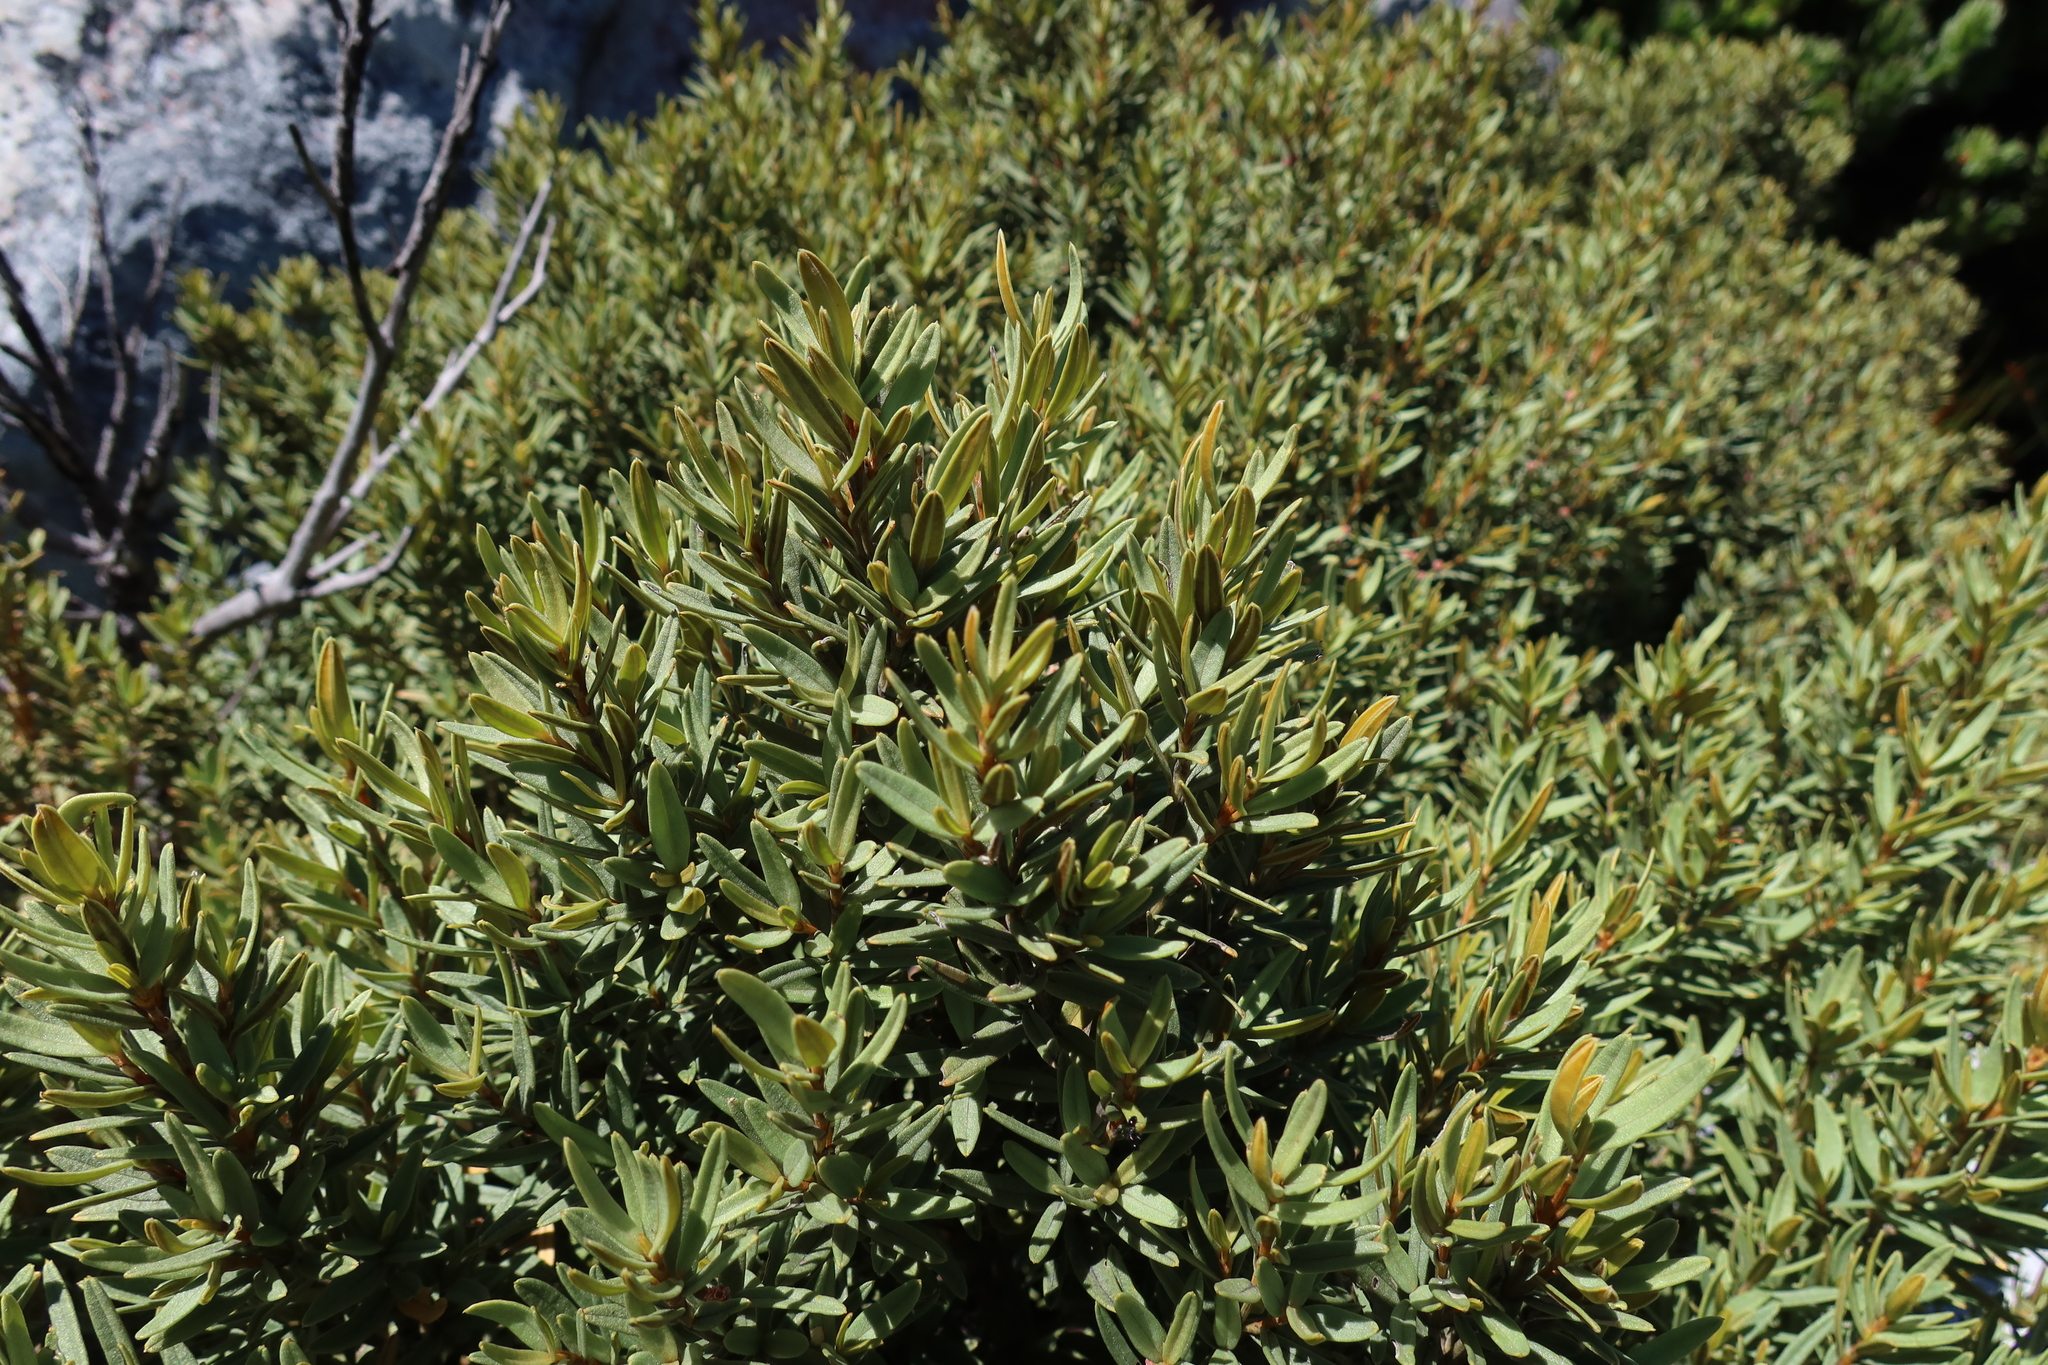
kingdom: Plantae
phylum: Tracheophyta
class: Magnoliopsida
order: Cornales
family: Grubbiaceae
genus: Grubbia
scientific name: Grubbia tomentosa
